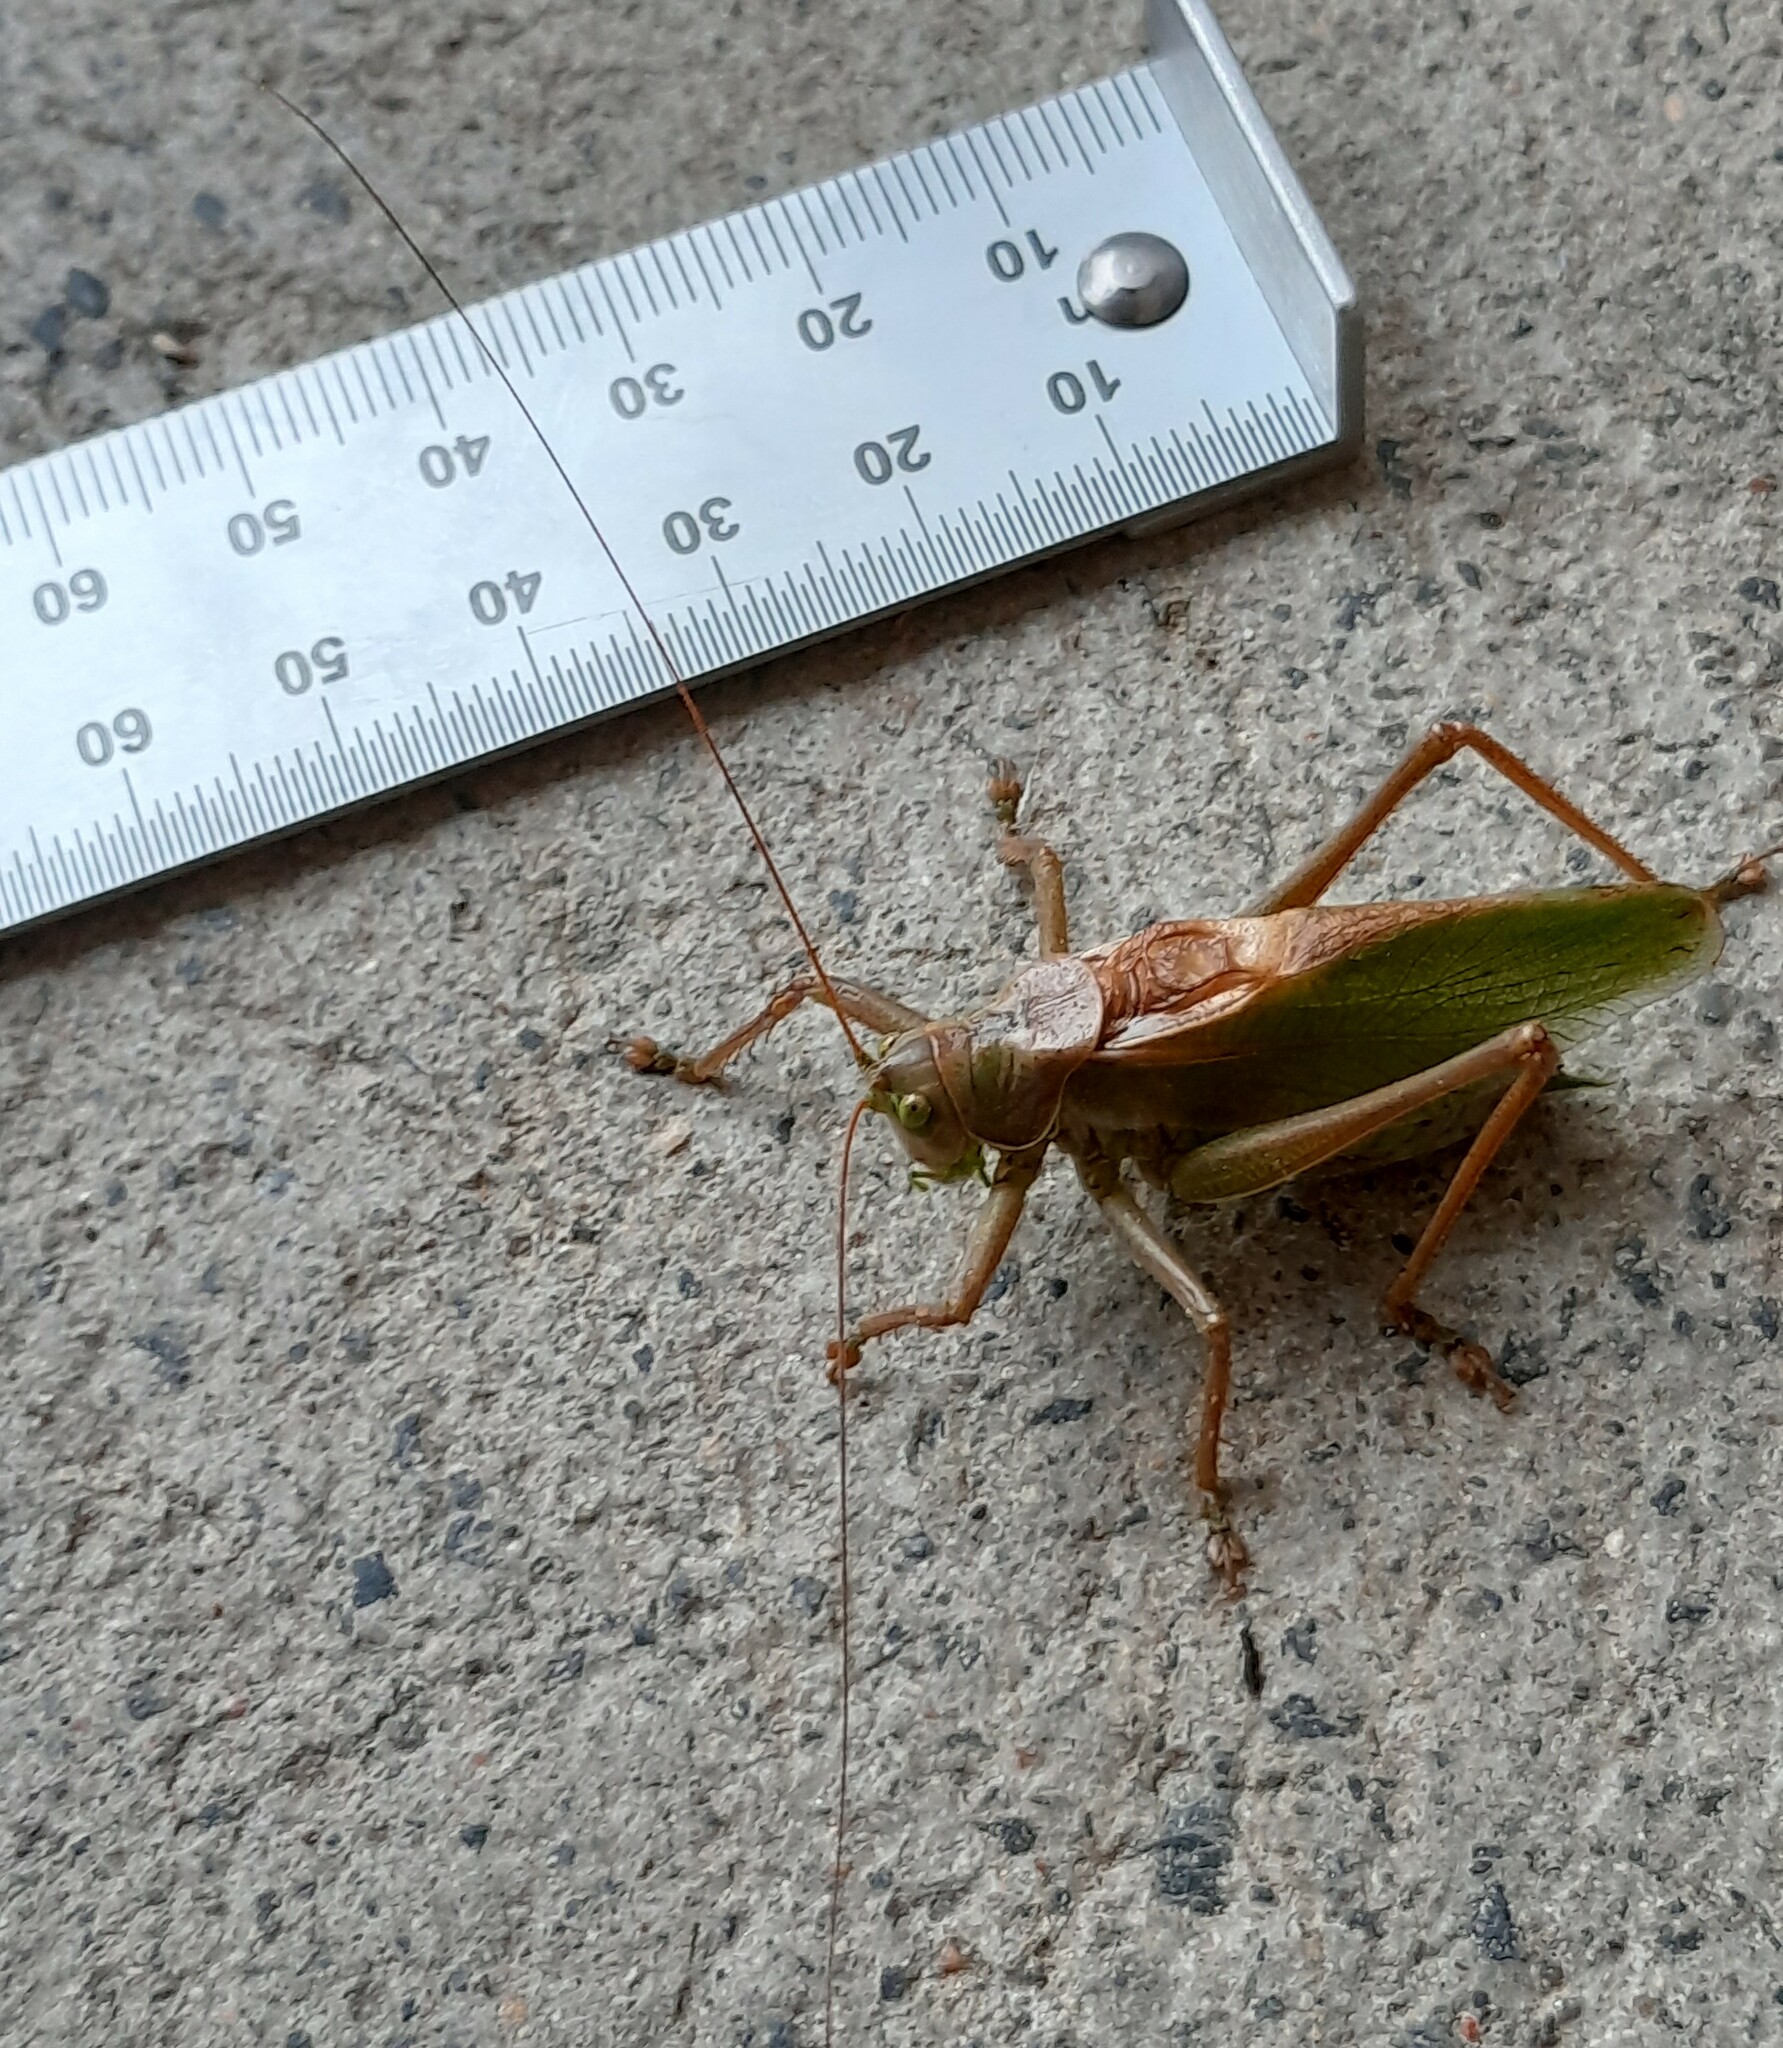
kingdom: Animalia
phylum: Arthropoda
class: Insecta
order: Orthoptera
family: Tettigoniidae
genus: Tettigonia
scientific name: Tettigonia cantans
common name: Upland green bush-cricket
